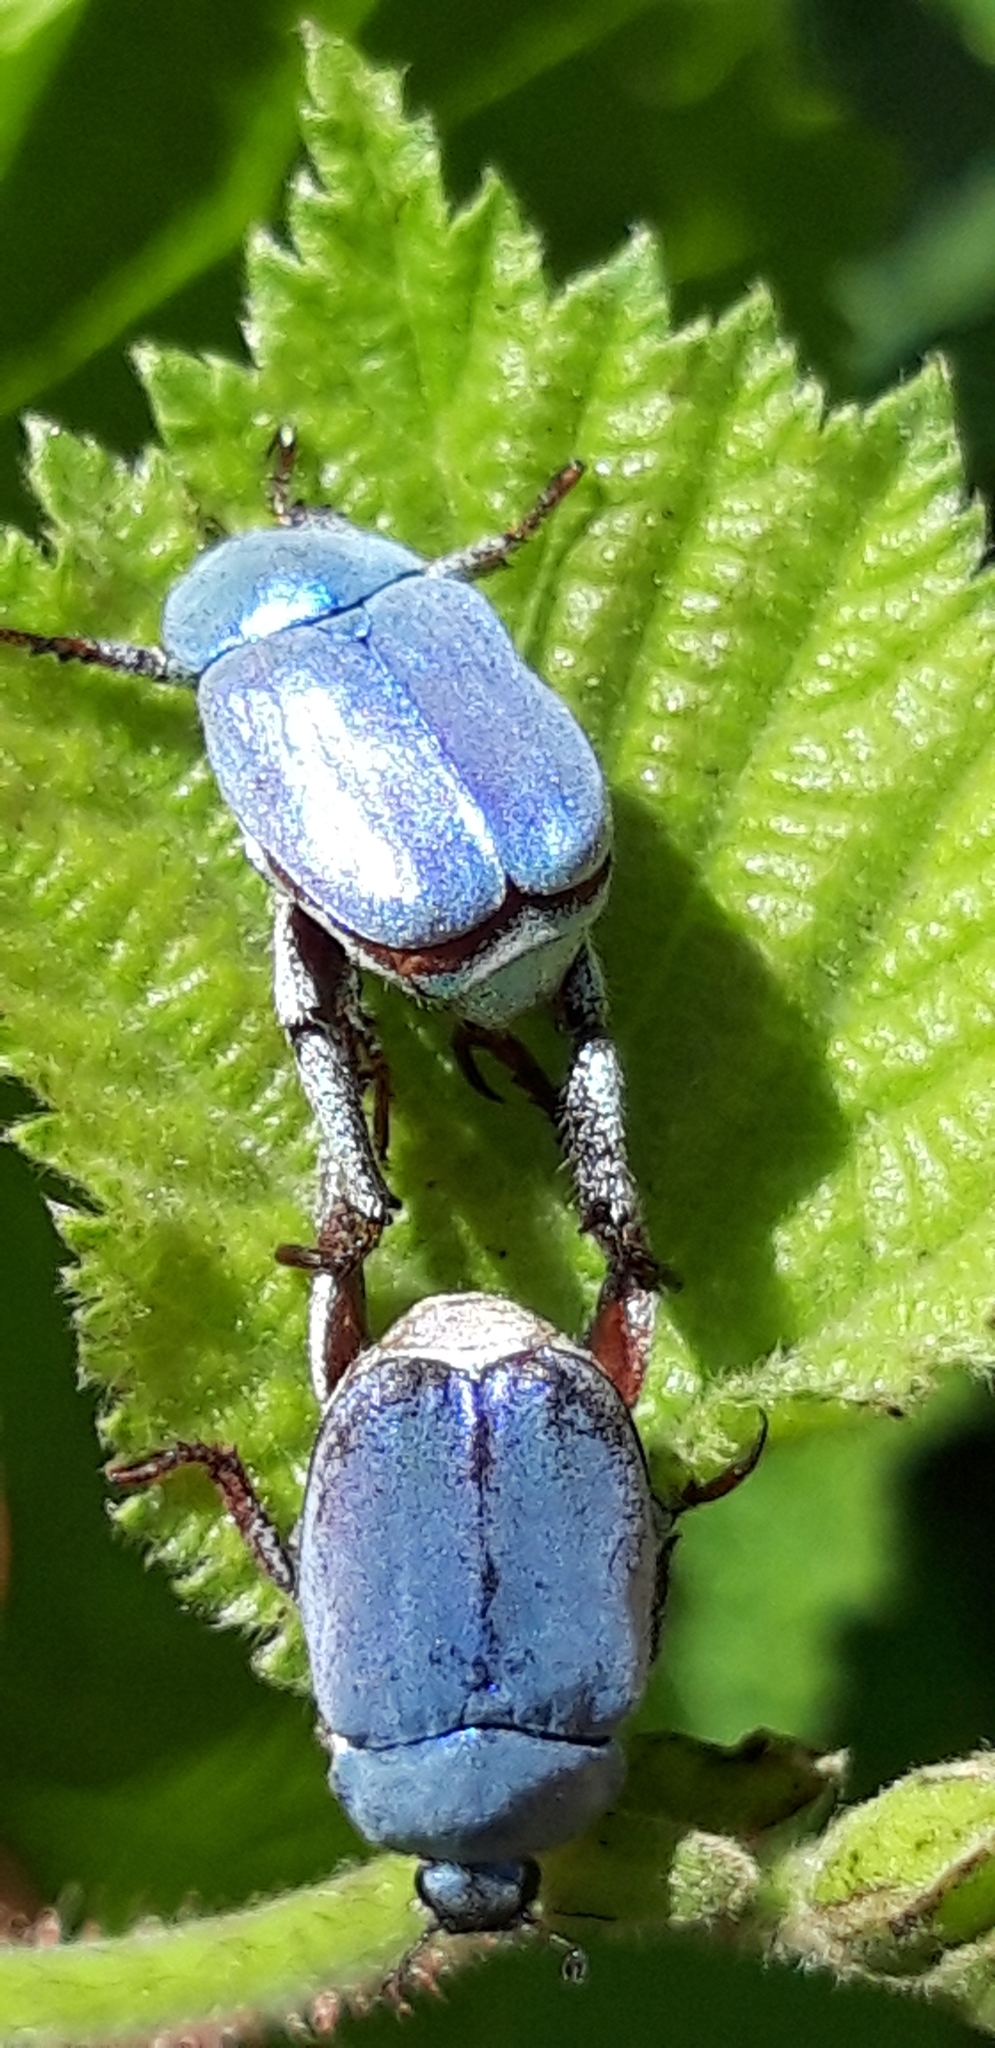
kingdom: Animalia
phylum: Arthropoda
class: Insecta
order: Coleoptera
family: Scarabaeidae
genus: Hoplia
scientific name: Hoplia coerulea
